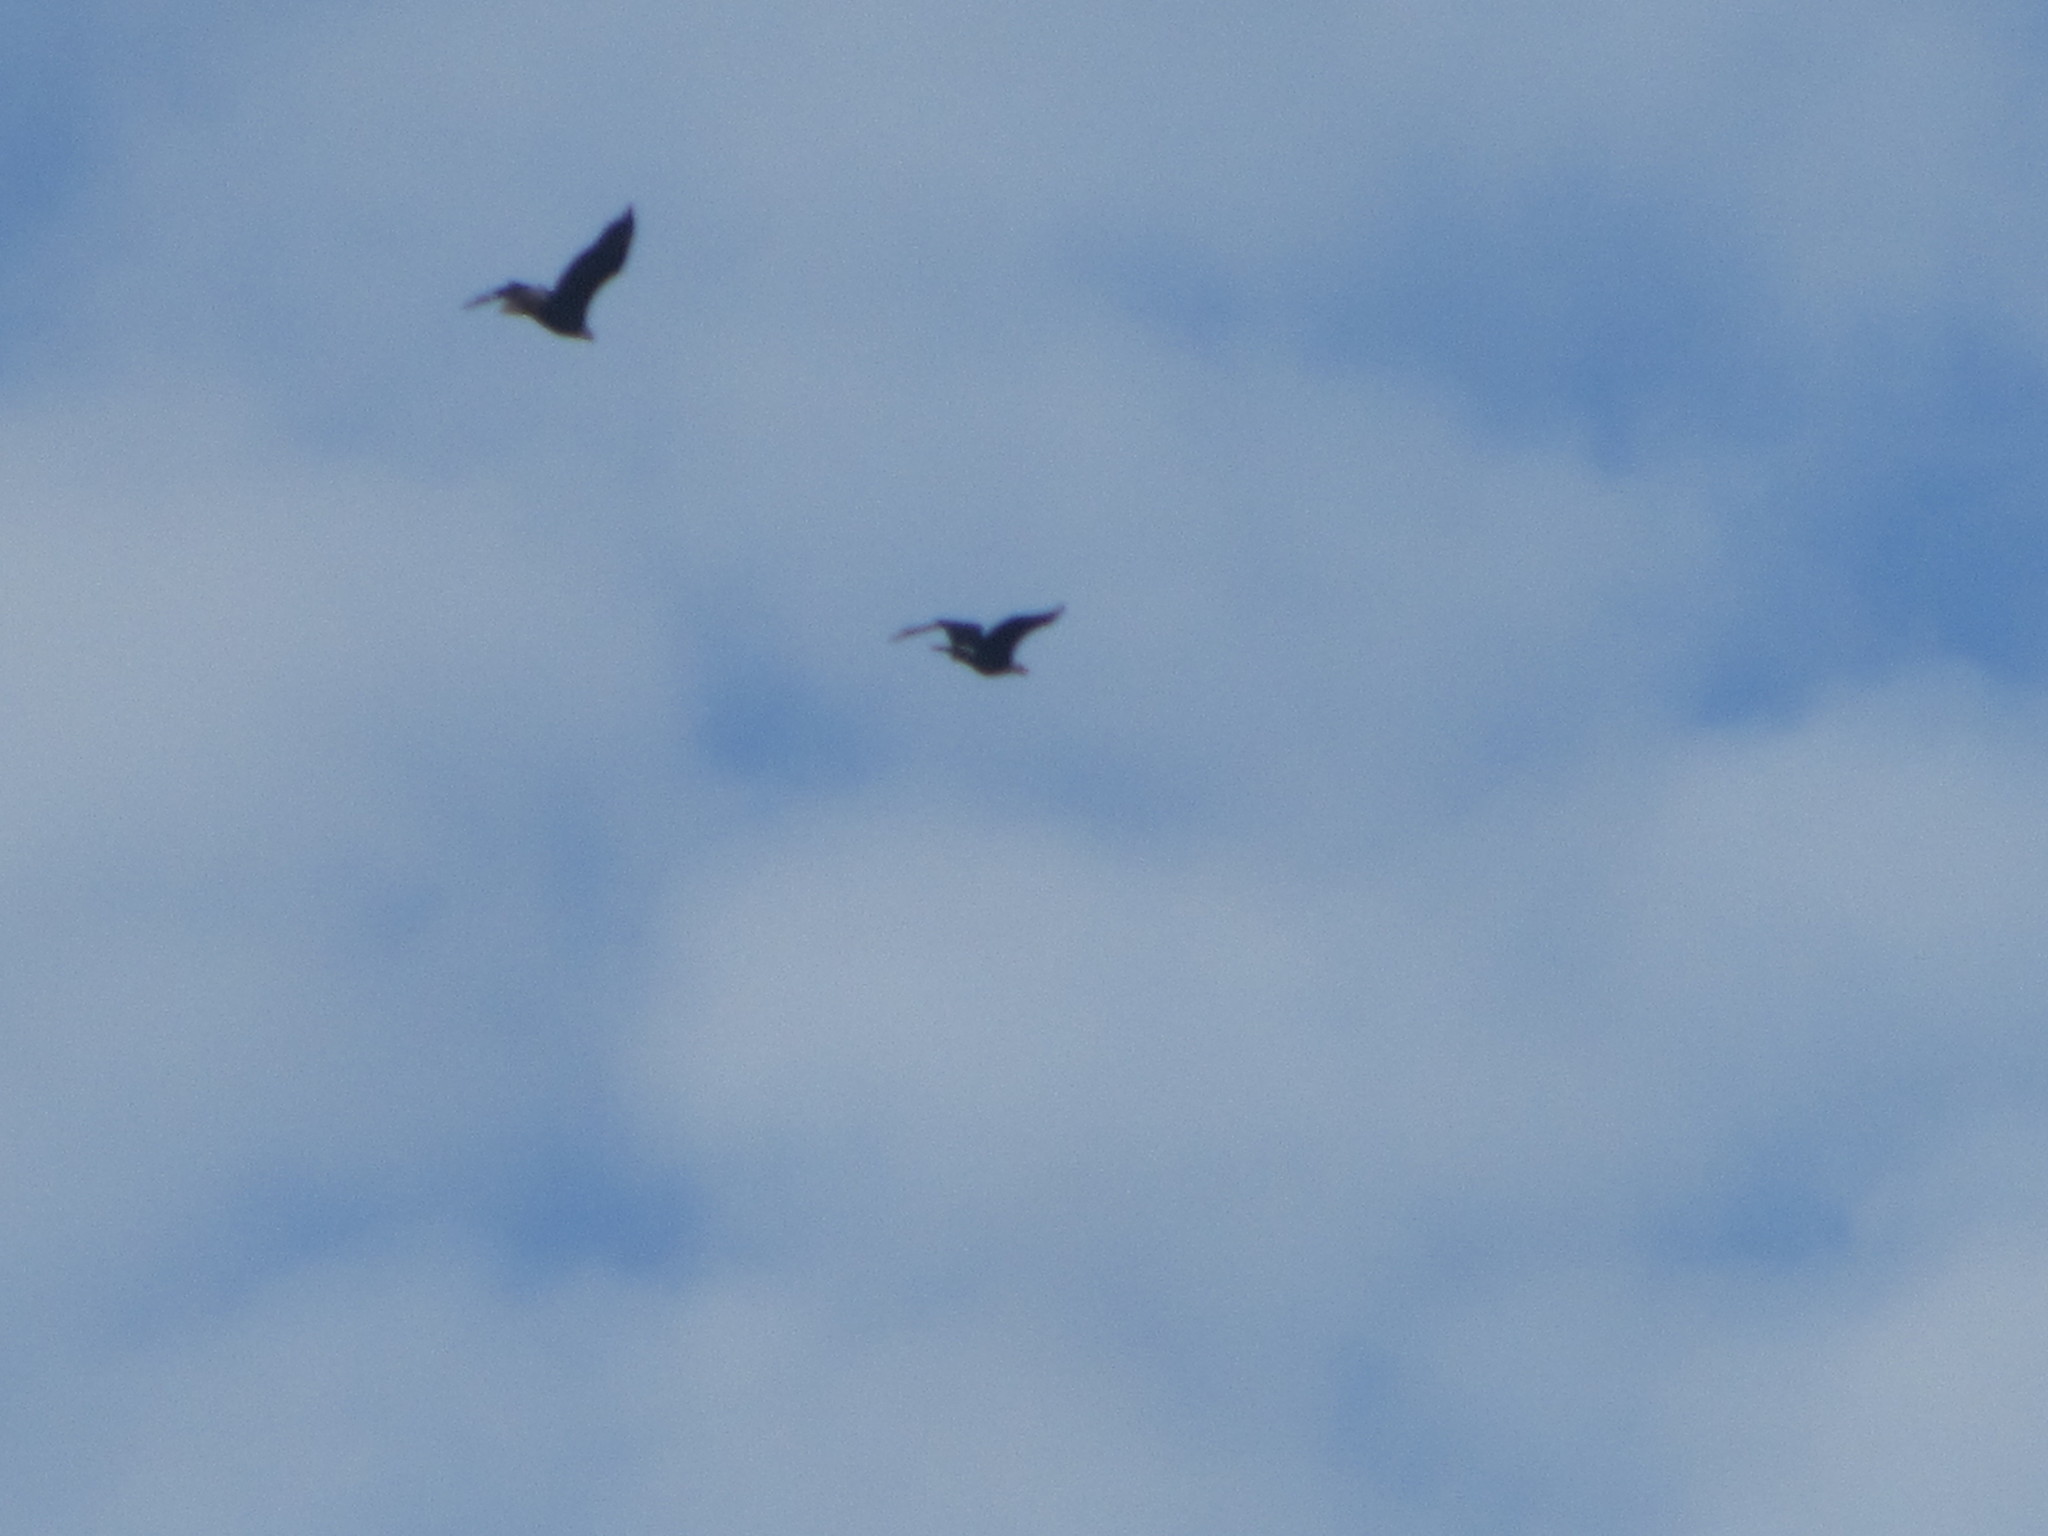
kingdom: Animalia
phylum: Chordata
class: Aves
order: Accipitriformes
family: Accipitridae
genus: Haliaeetus
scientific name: Haliaeetus leucocephalus
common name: Bald eagle
